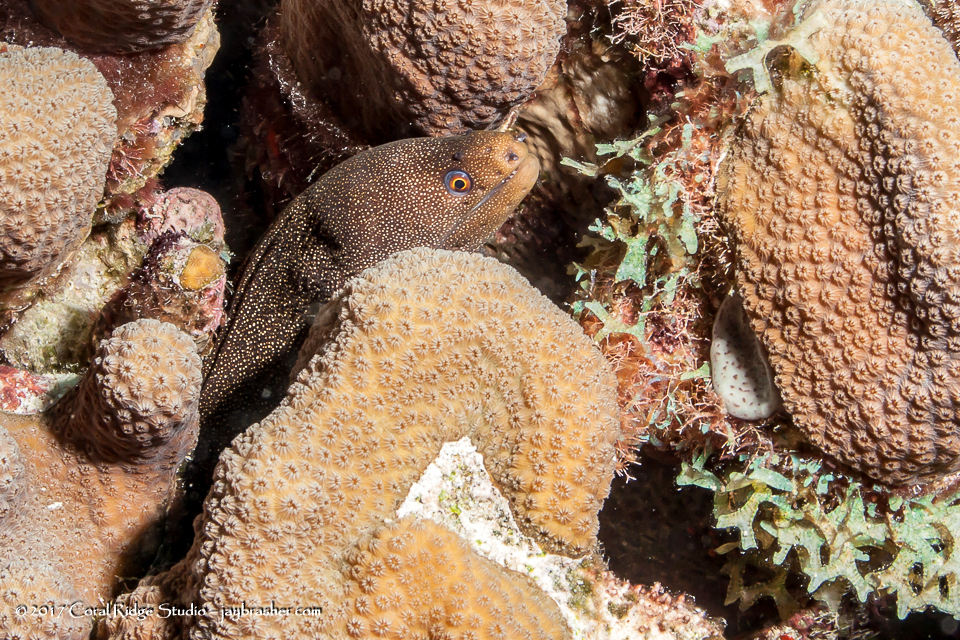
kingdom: Animalia
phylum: Chordata
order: Anguilliformes
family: Muraenidae
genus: Gymnothorax
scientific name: Gymnothorax miliaris
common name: Goldentail moray
